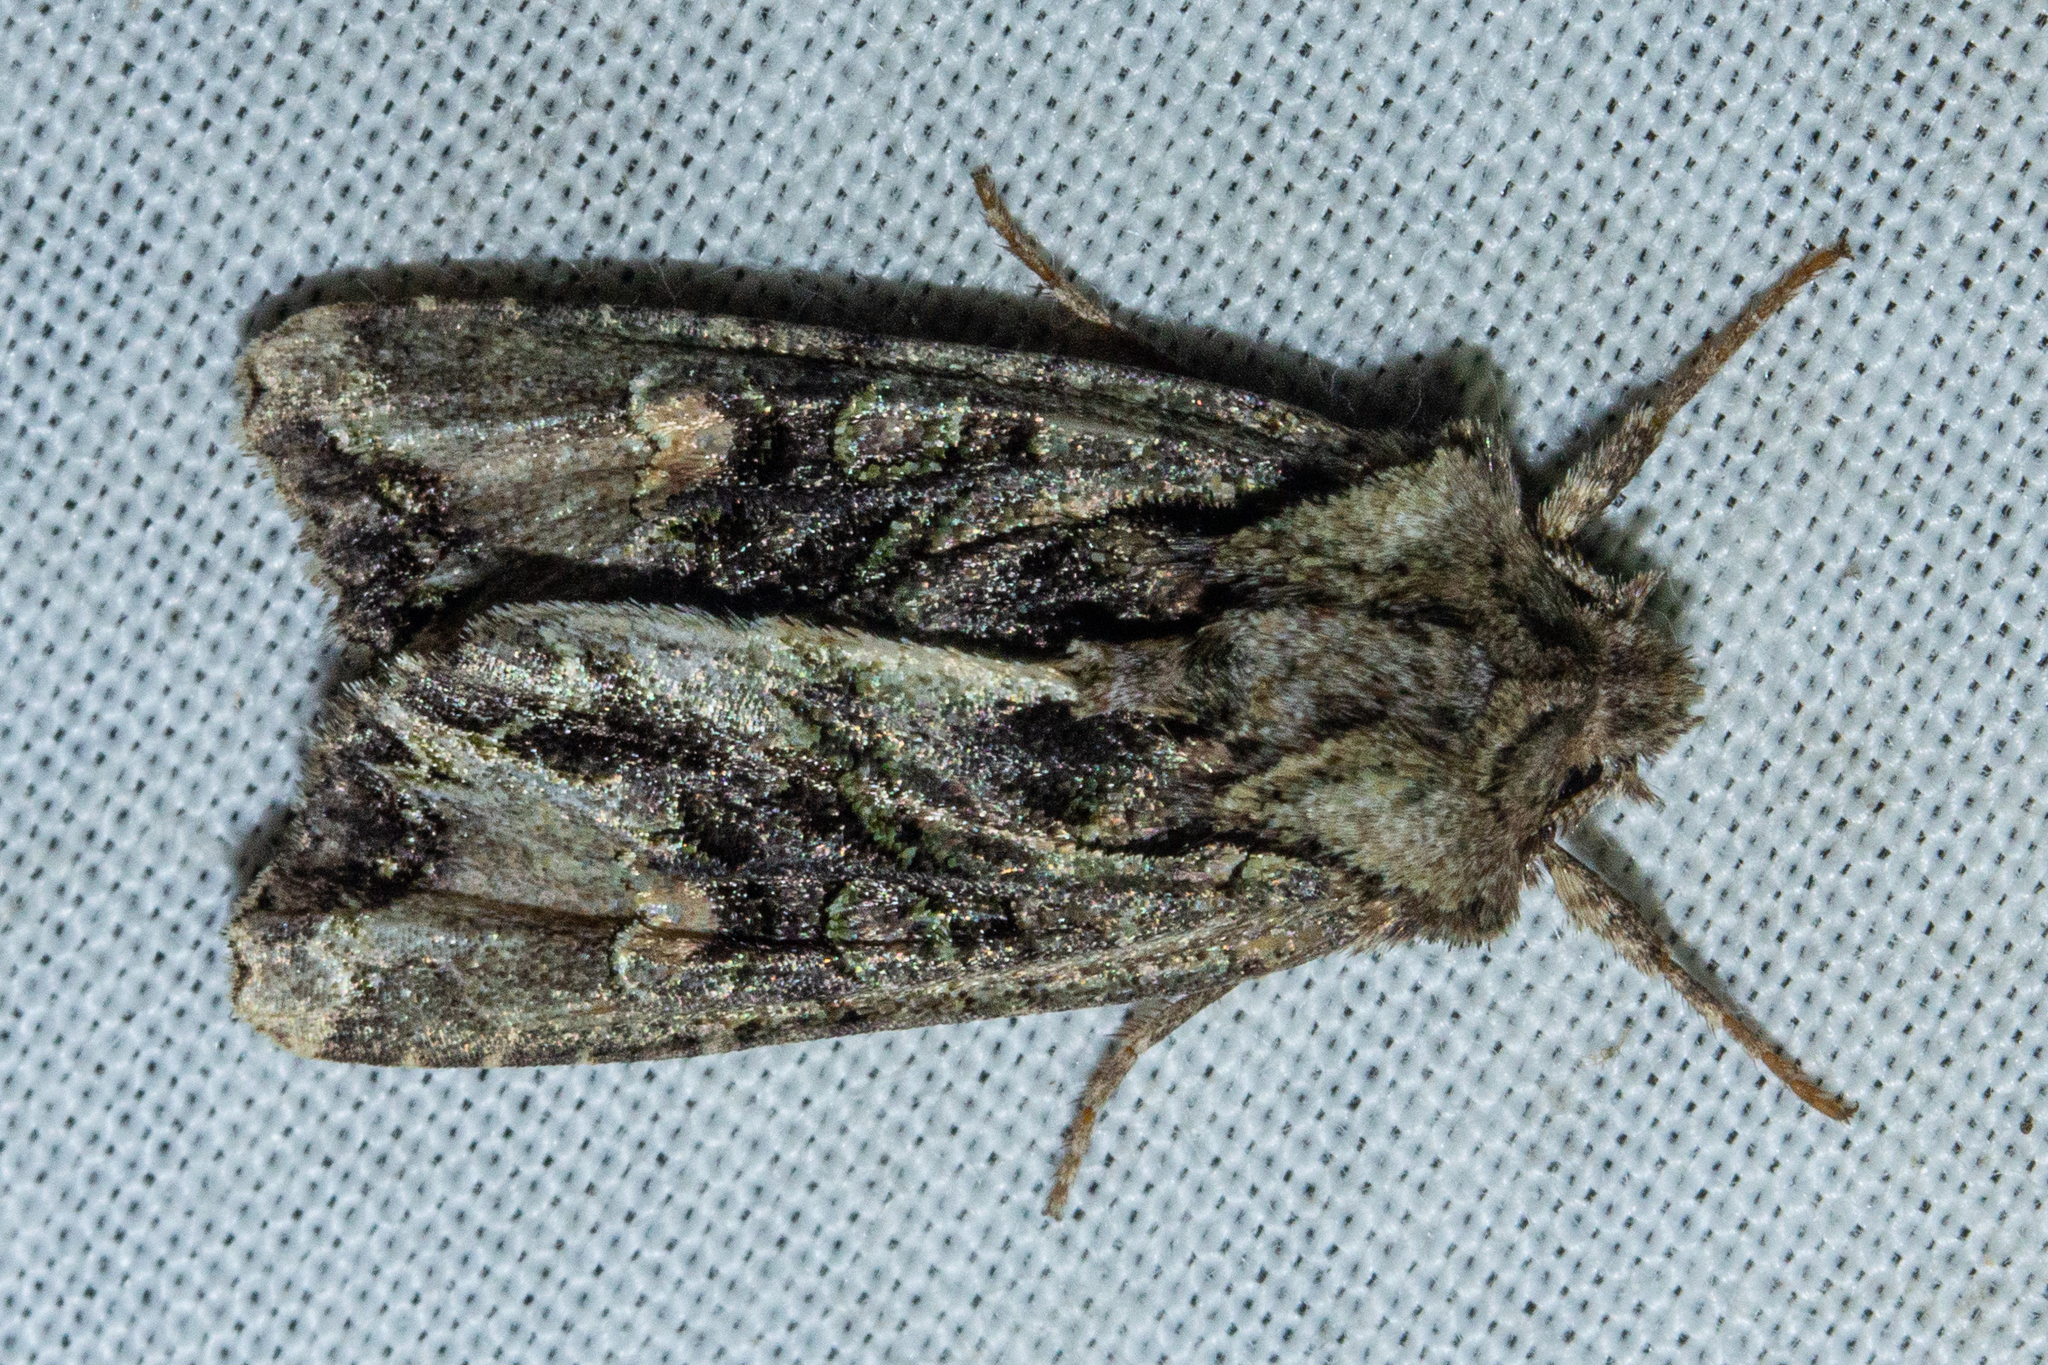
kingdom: Animalia
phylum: Arthropoda
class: Insecta
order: Lepidoptera
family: Noctuidae
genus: Ichneutica
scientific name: Ichneutica insignis
